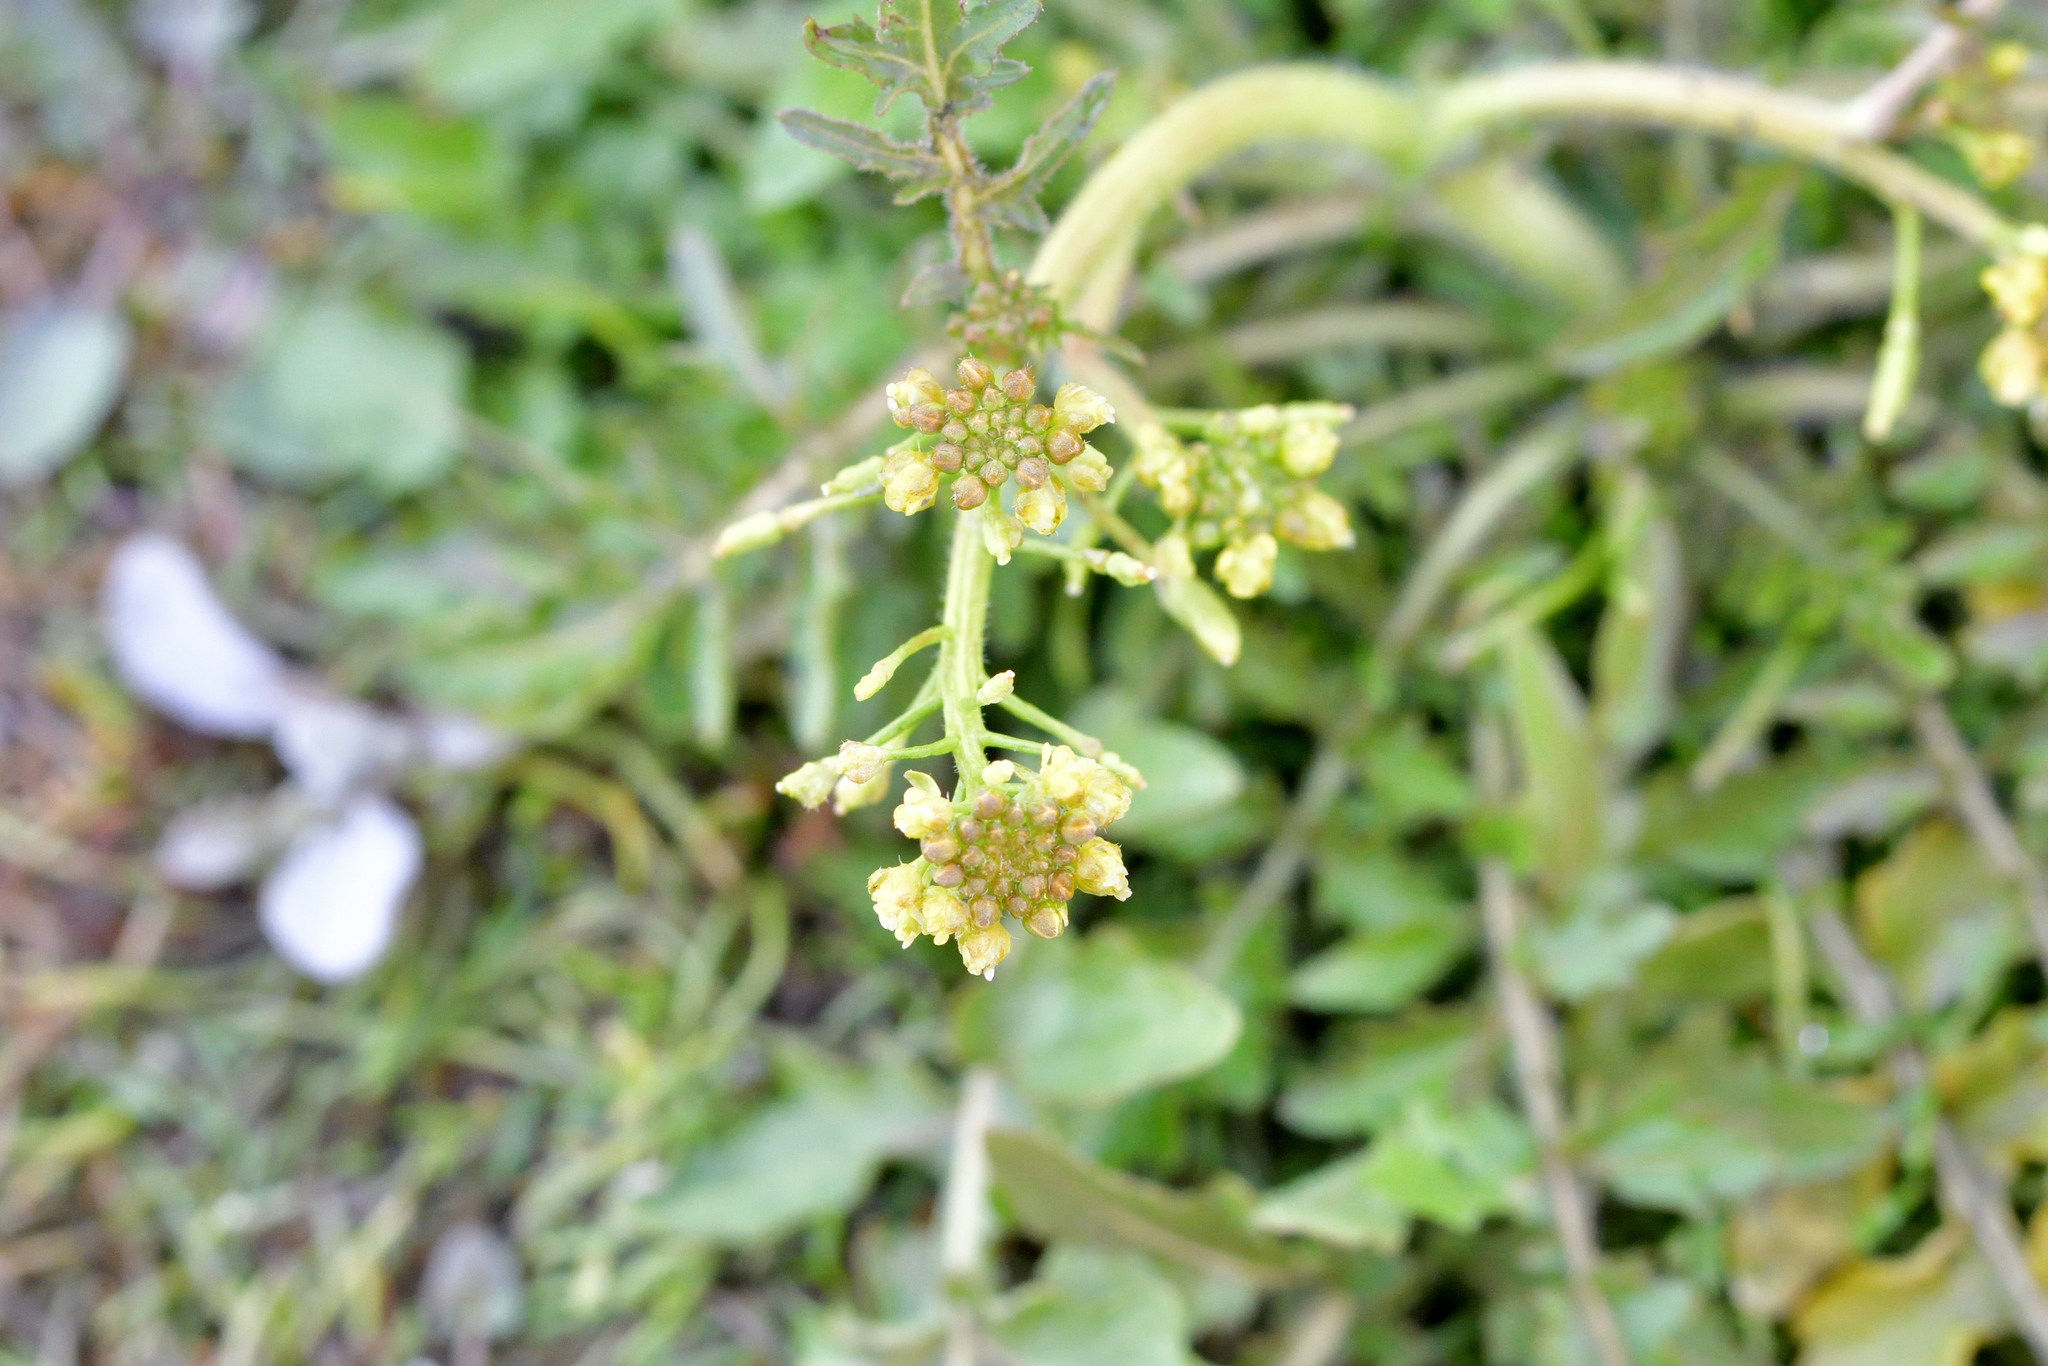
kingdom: Plantae
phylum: Tracheophyta
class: Magnoliopsida
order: Brassicales
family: Brassicaceae
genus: Rorippa
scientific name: Rorippa palustris
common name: Marsh yellow-cress
